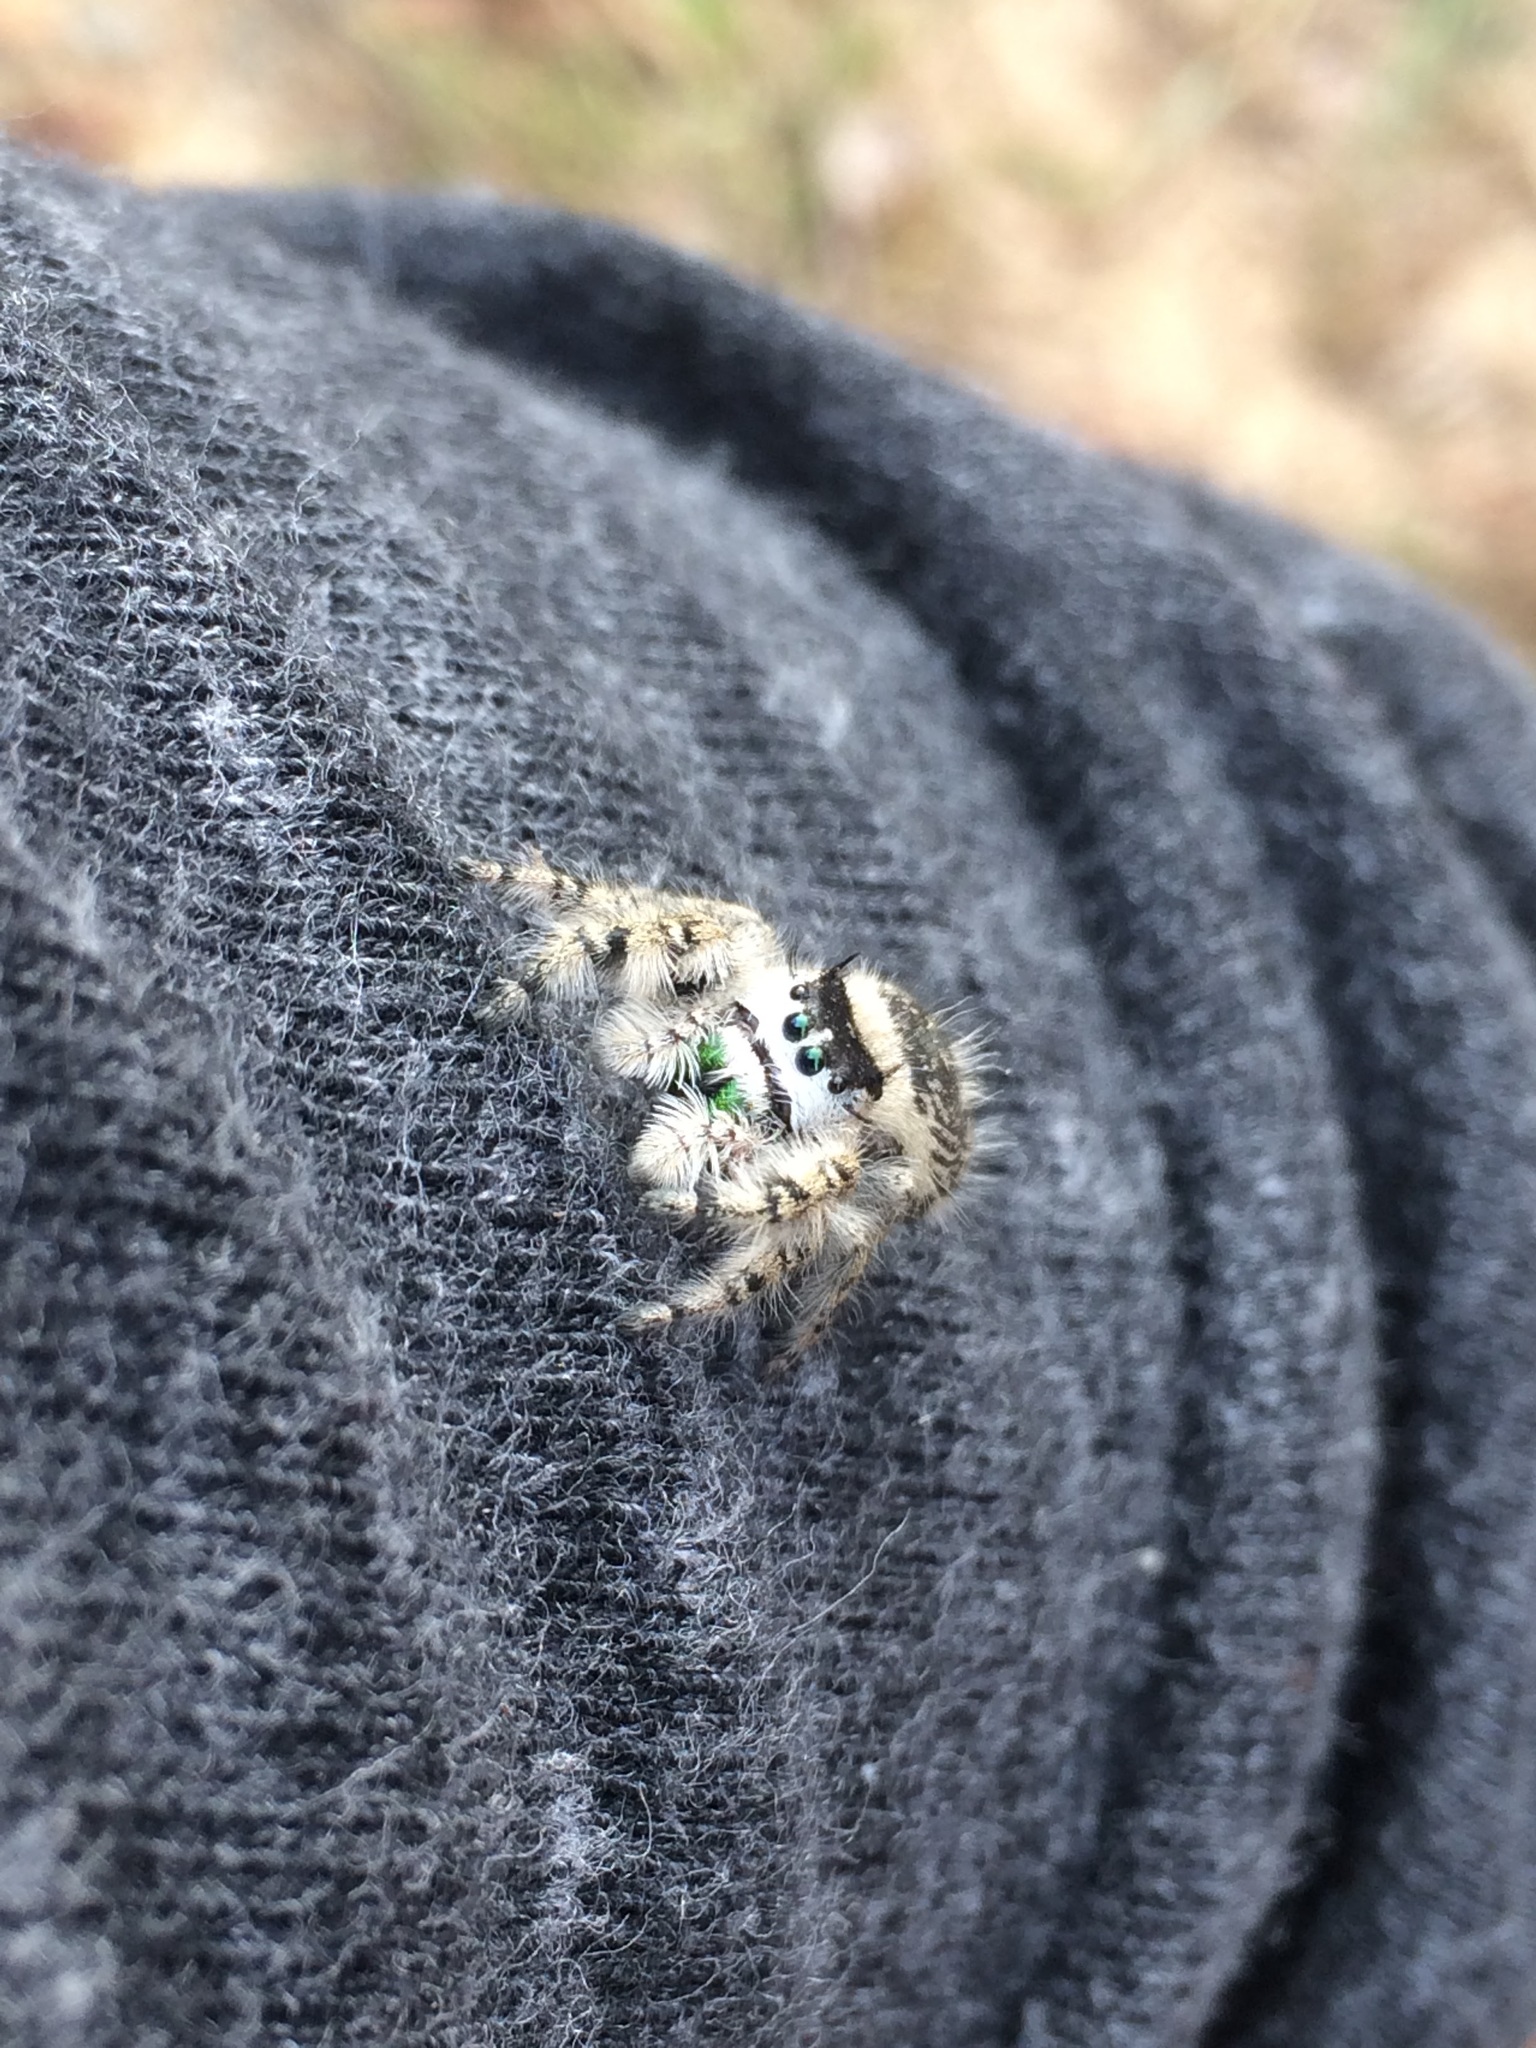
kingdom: Animalia
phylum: Arthropoda
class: Arachnida
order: Araneae
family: Salticidae
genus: Phidippus
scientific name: Phidippus otiosus
